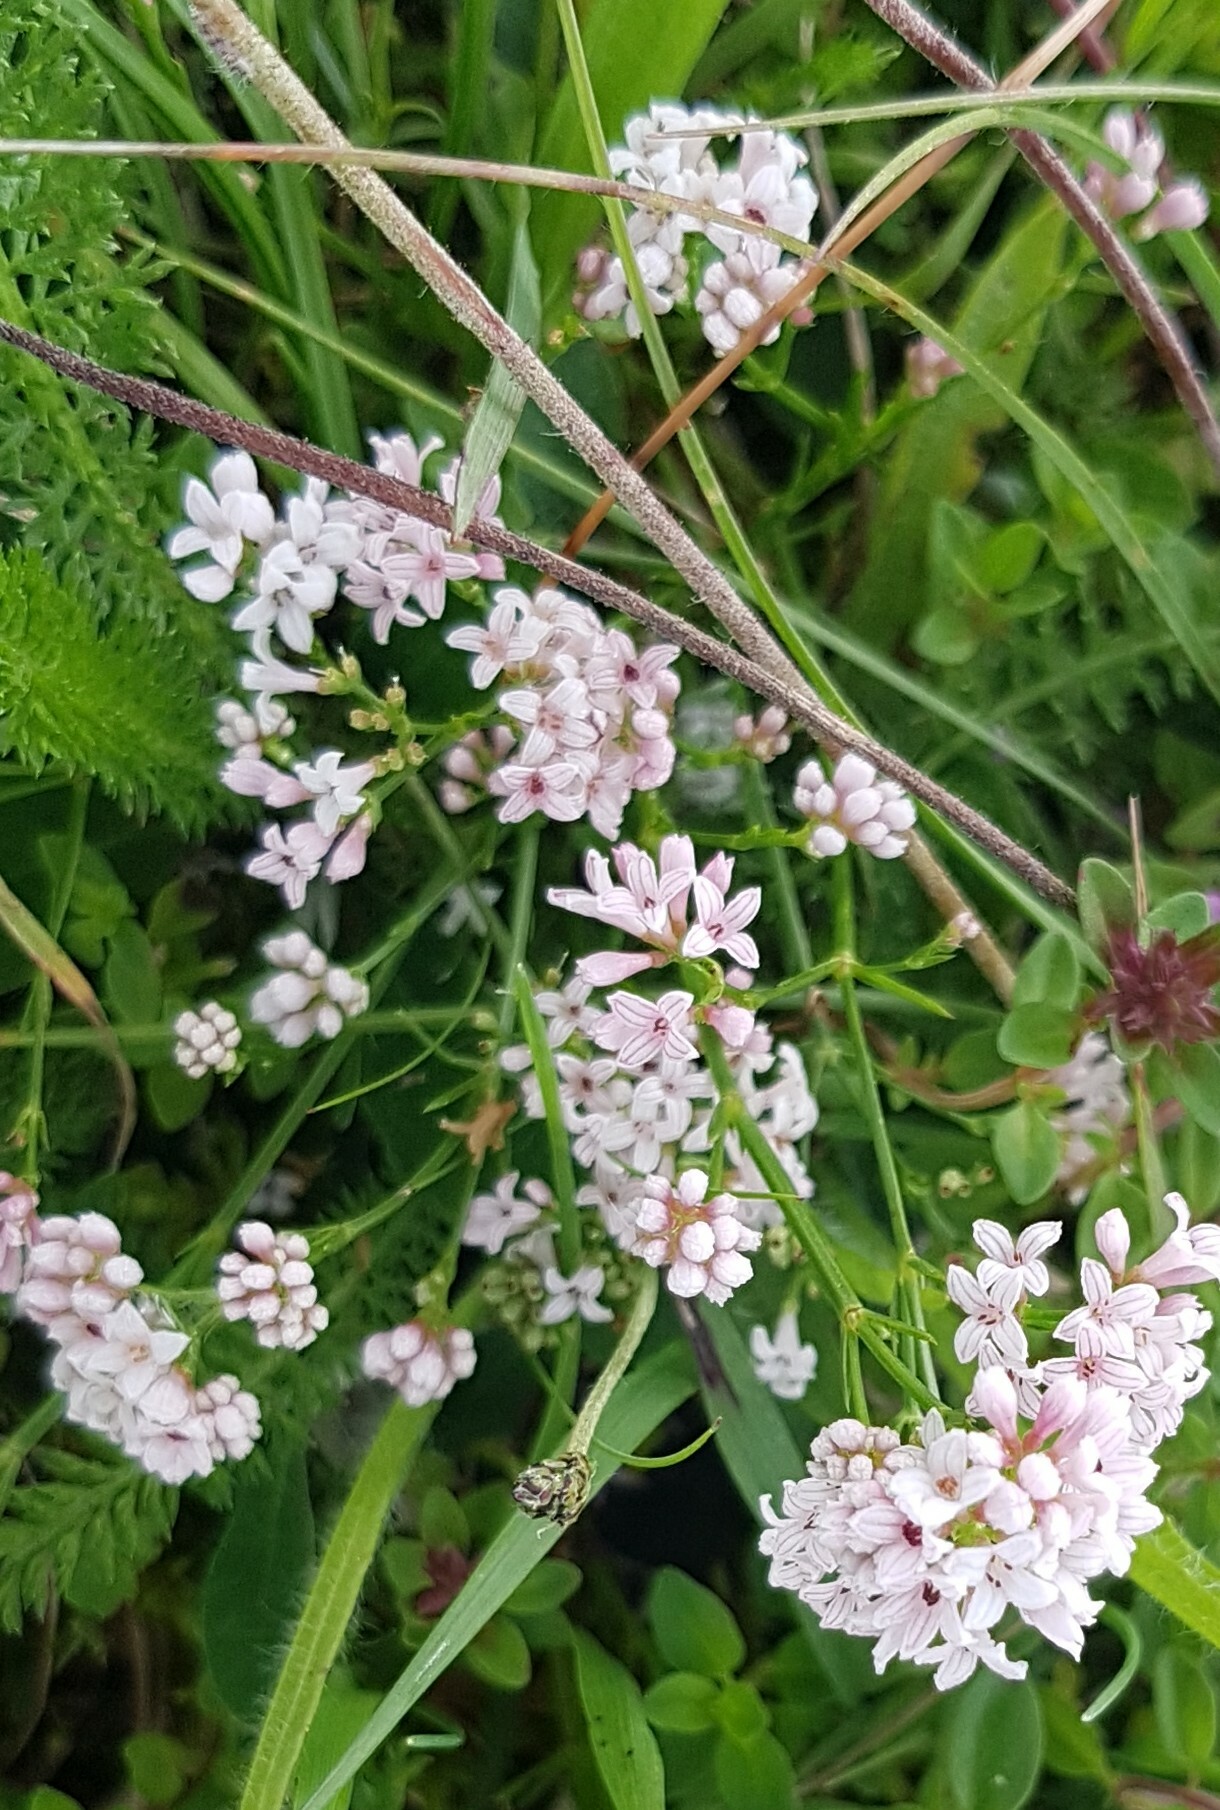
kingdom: Plantae
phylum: Tracheophyta
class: Magnoliopsida
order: Gentianales
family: Rubiaceae
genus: Cynanchica
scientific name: Cynanchica pyrenaica
